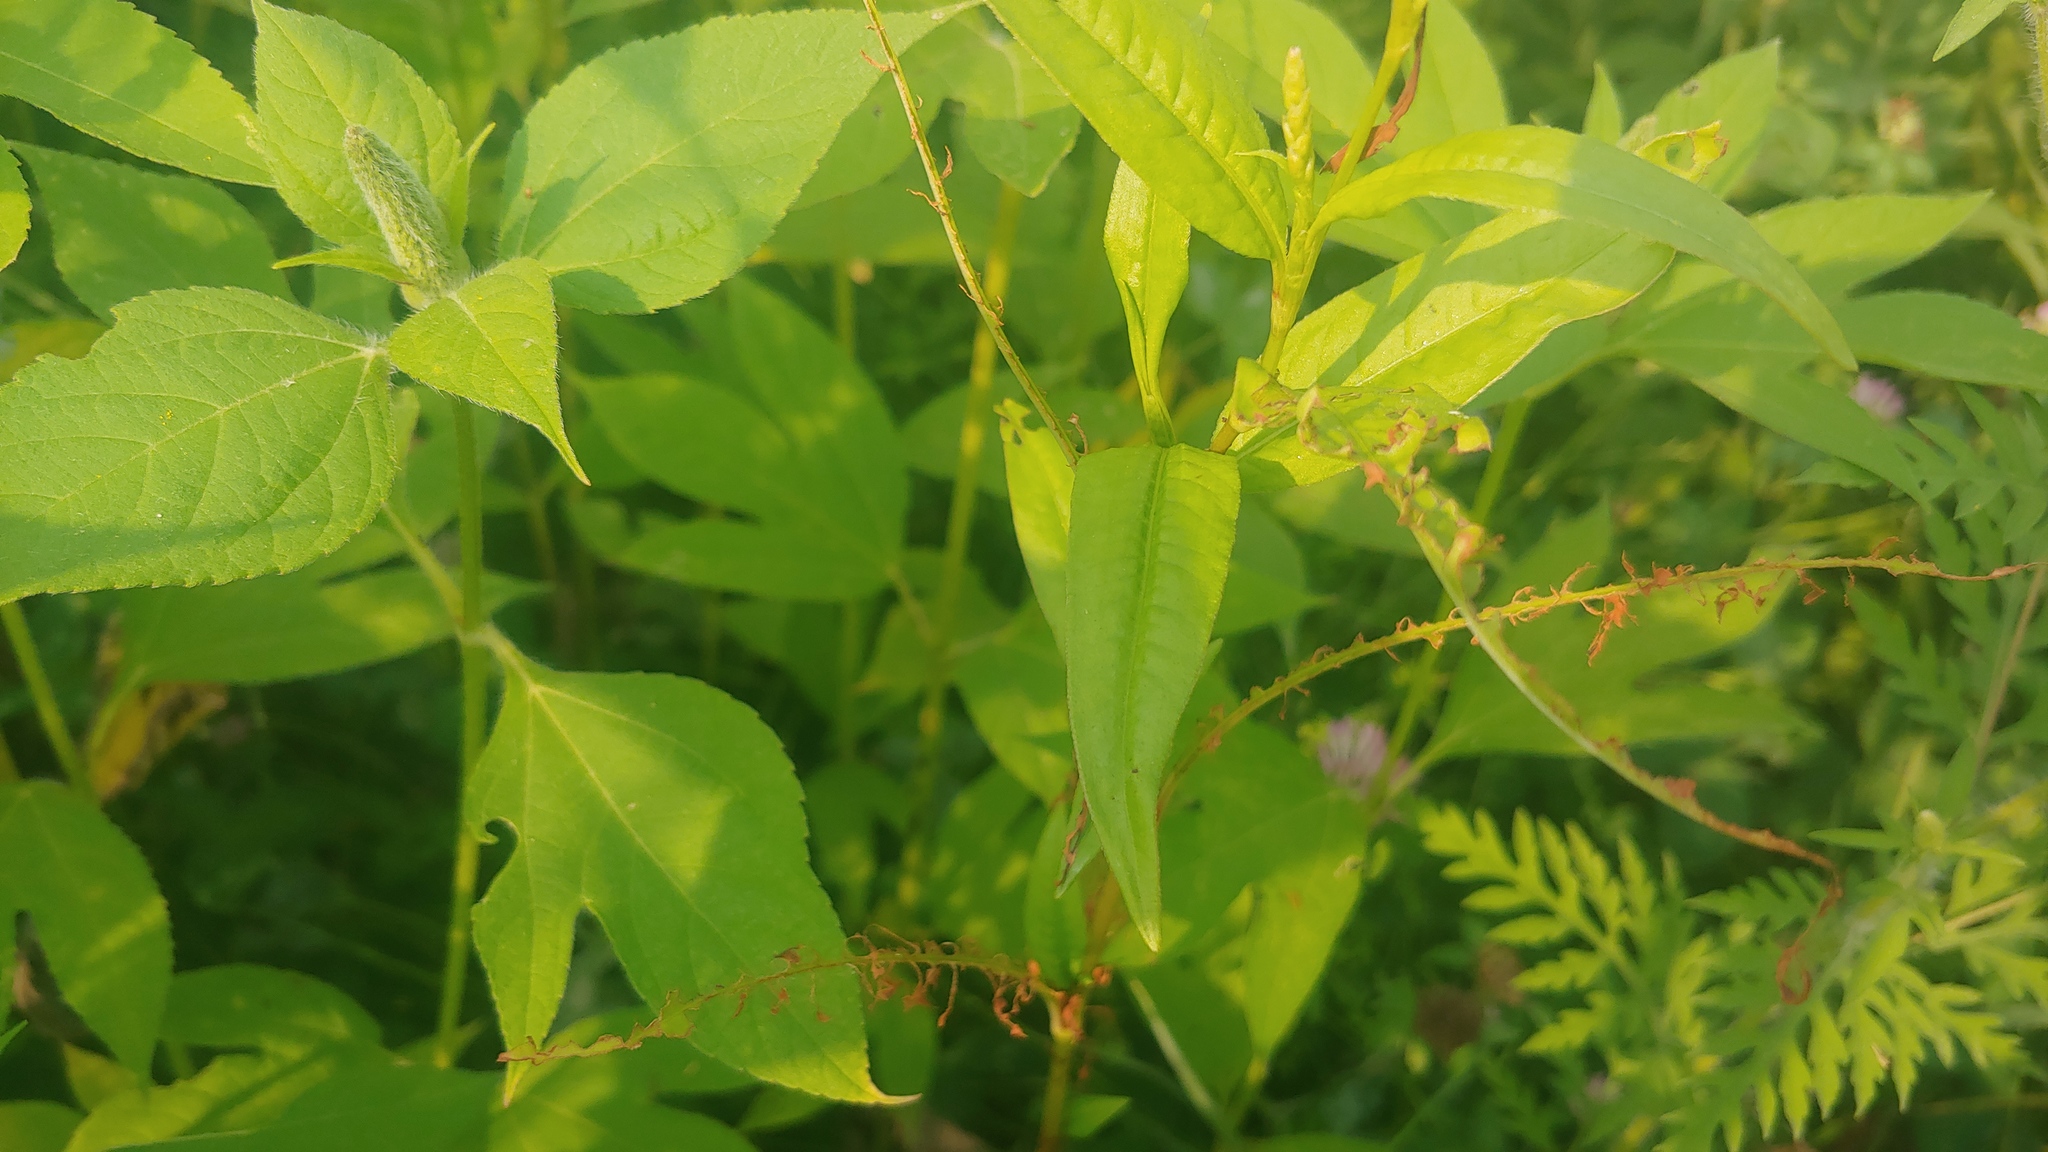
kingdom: Plantae
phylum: Tracheophyta
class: Magnoliopsida
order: Caryophyllales
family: Polygonaceae
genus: Persicaria
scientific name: Persicaria pensylvanica
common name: Pinkweed
